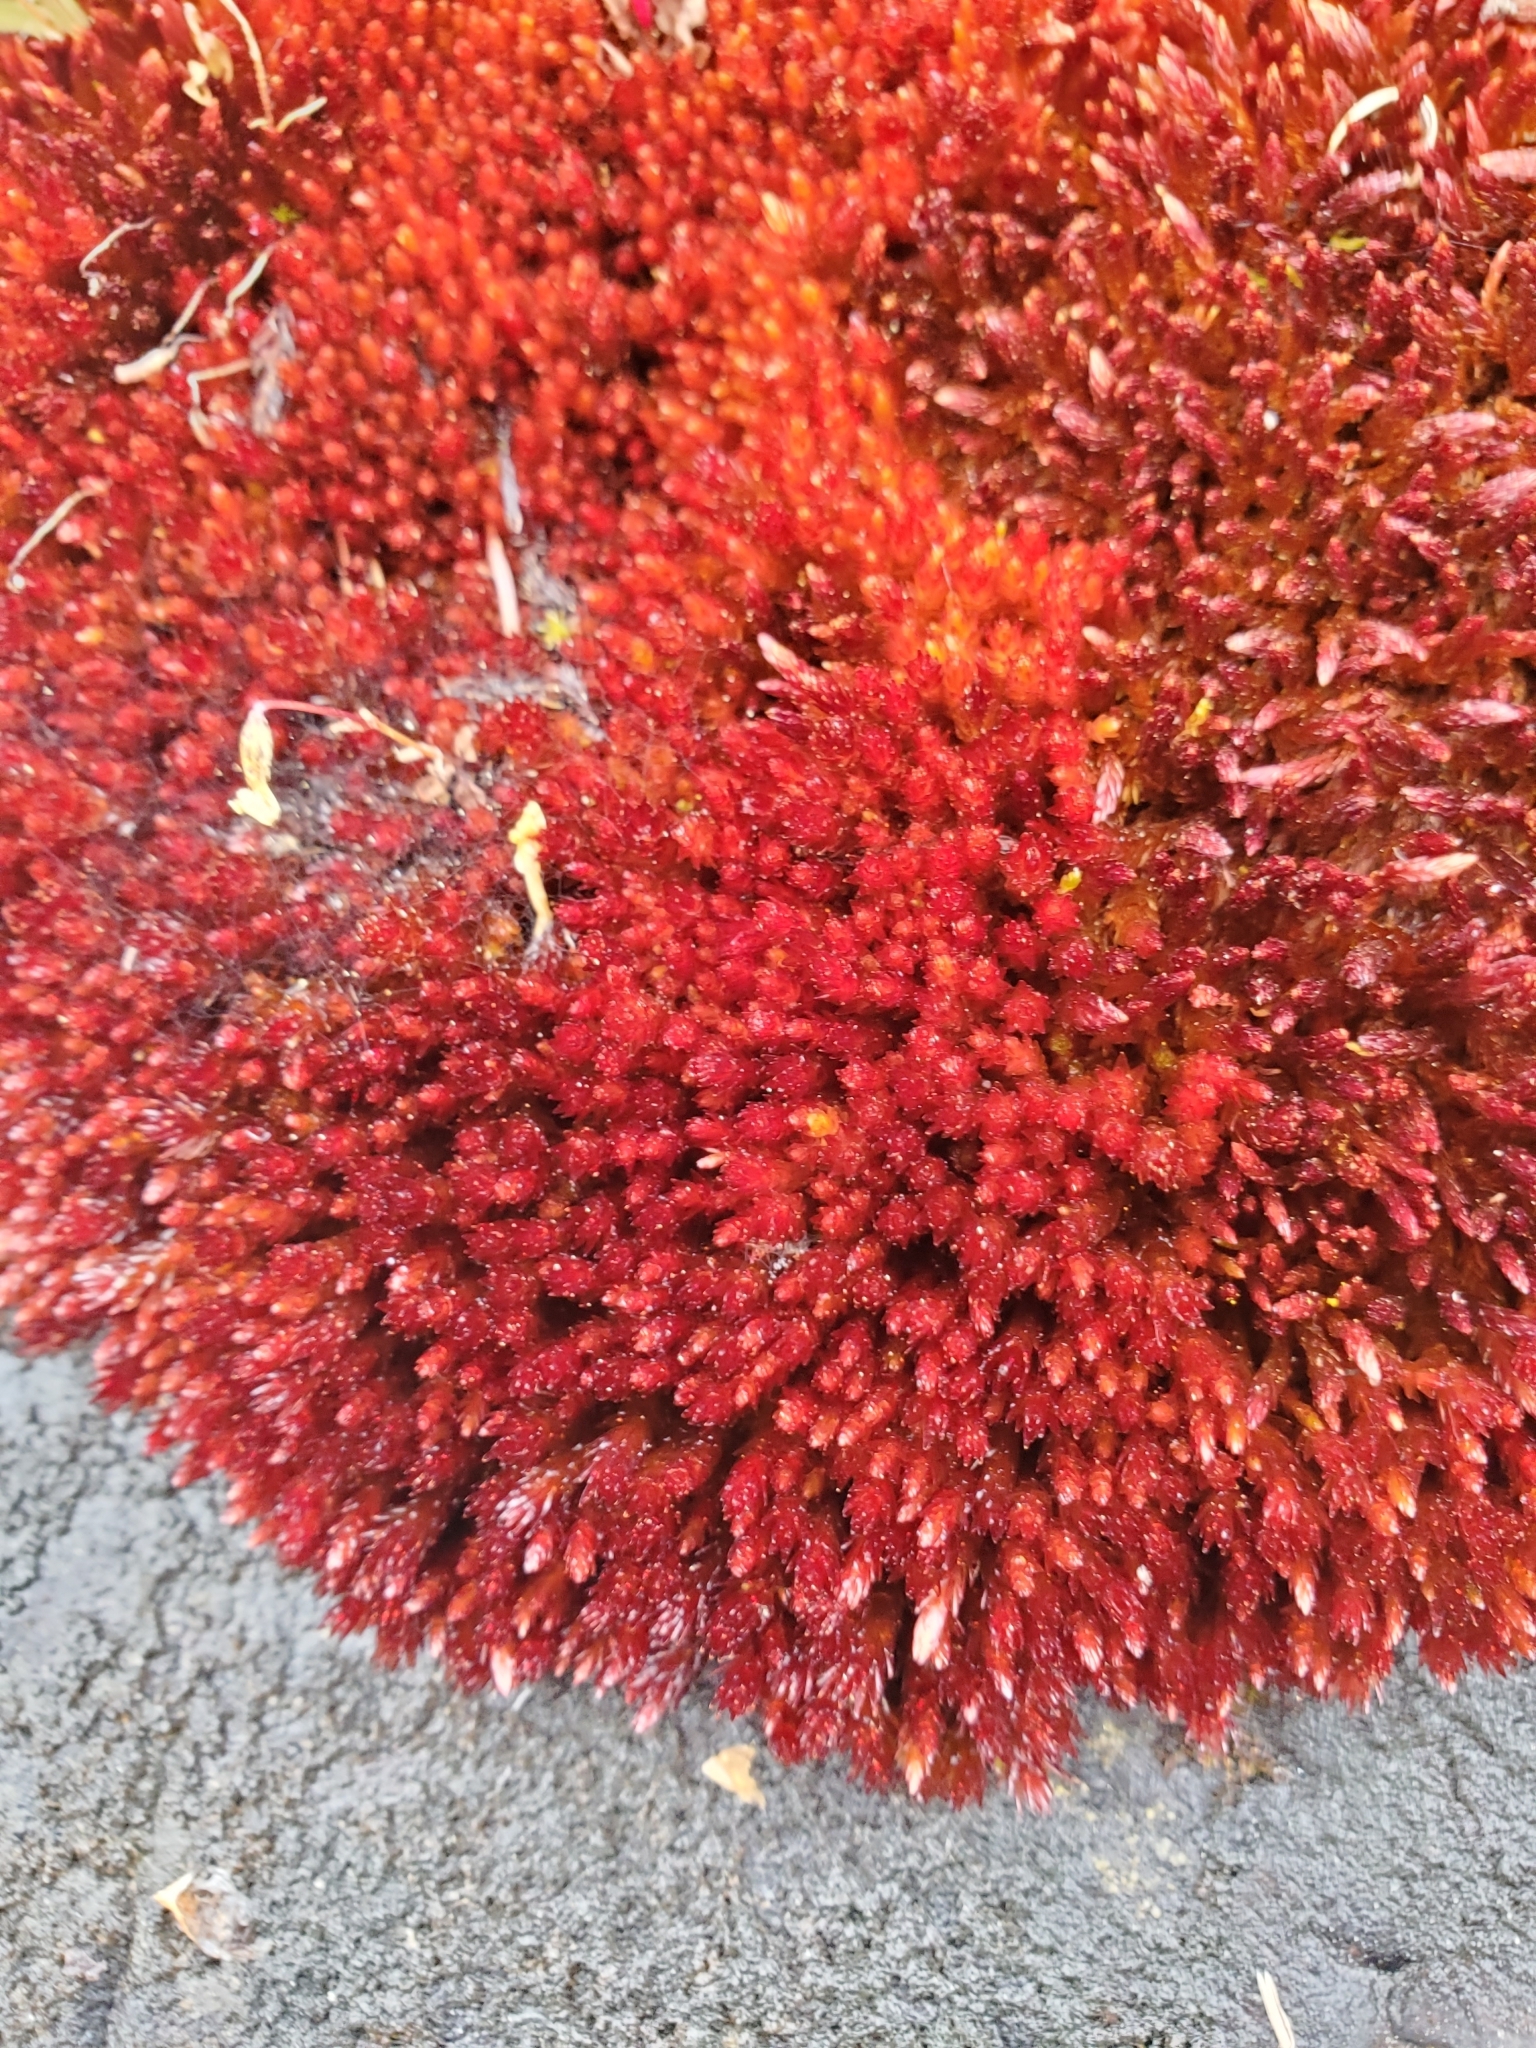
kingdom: Plantae
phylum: Bryophyta
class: Bryopsida
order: Bryales
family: Bryaceae
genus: Imbribryum
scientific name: Imbribryum miniatum
